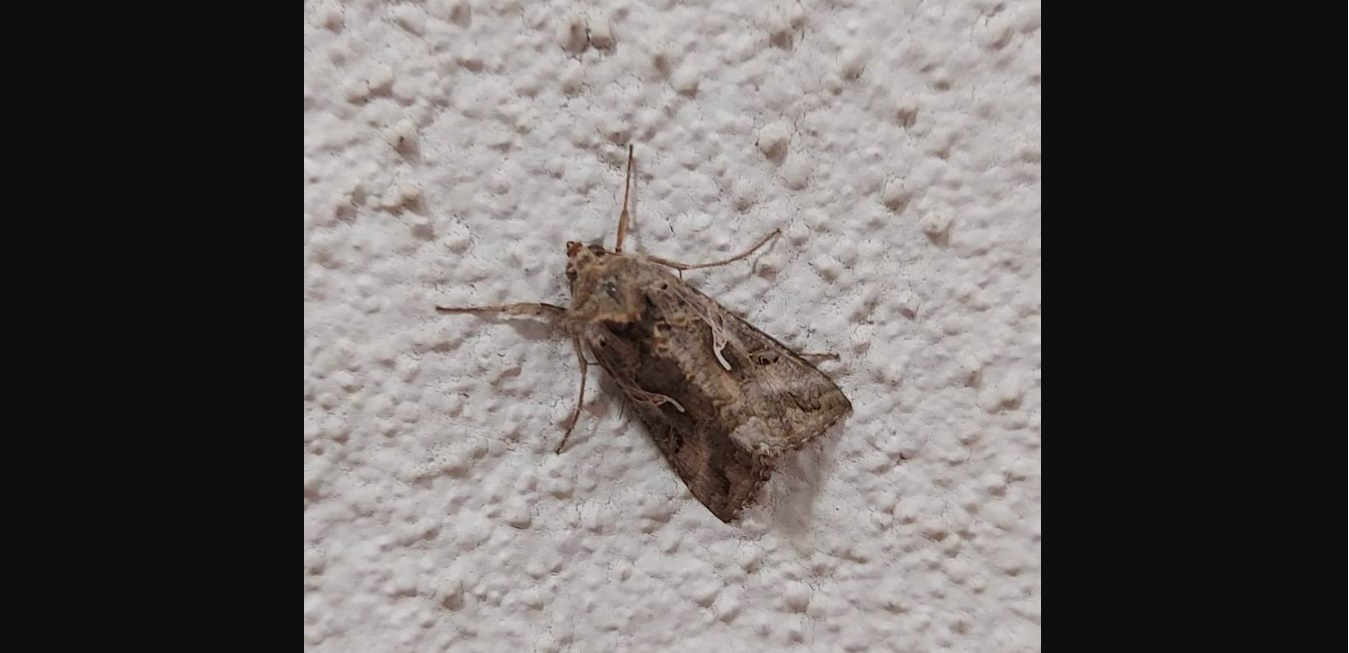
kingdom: Animalia
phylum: Arthropoda
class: Insecta
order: Lepidoptera
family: Noctuidae
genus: Autographa
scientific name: Autographa gamma
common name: Silver y
